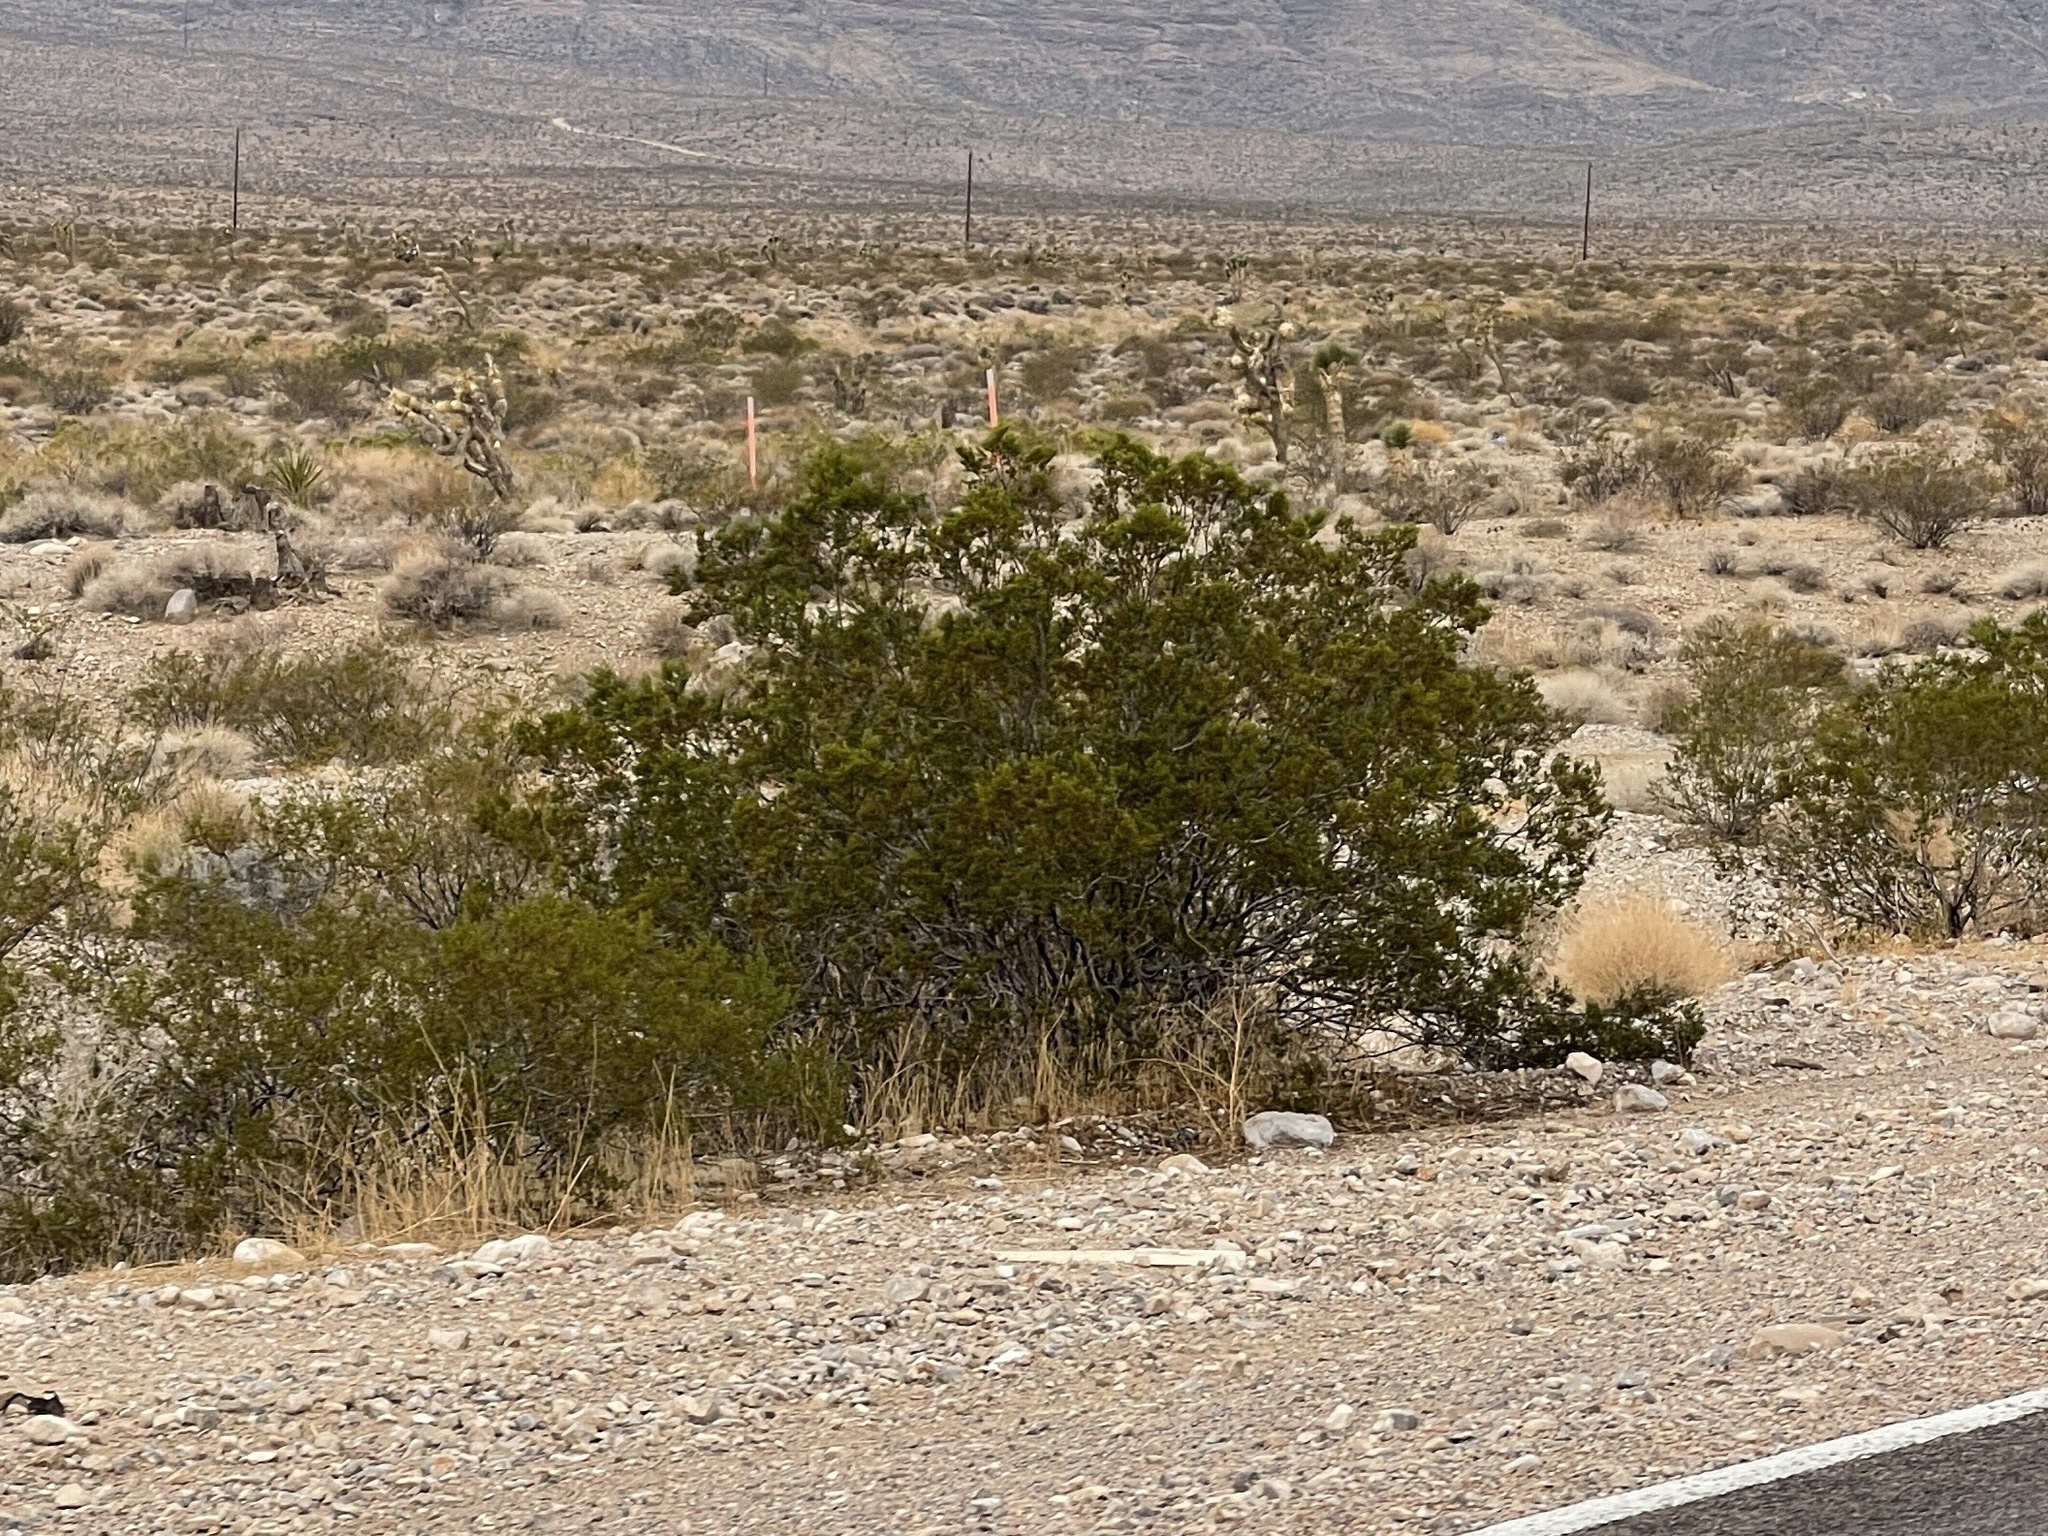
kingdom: Plantae
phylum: Tracheophyta
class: Magnoliopsida
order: Zygophyllales
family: Zygophyllaceae
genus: Larrea
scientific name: Larrea tridentata
